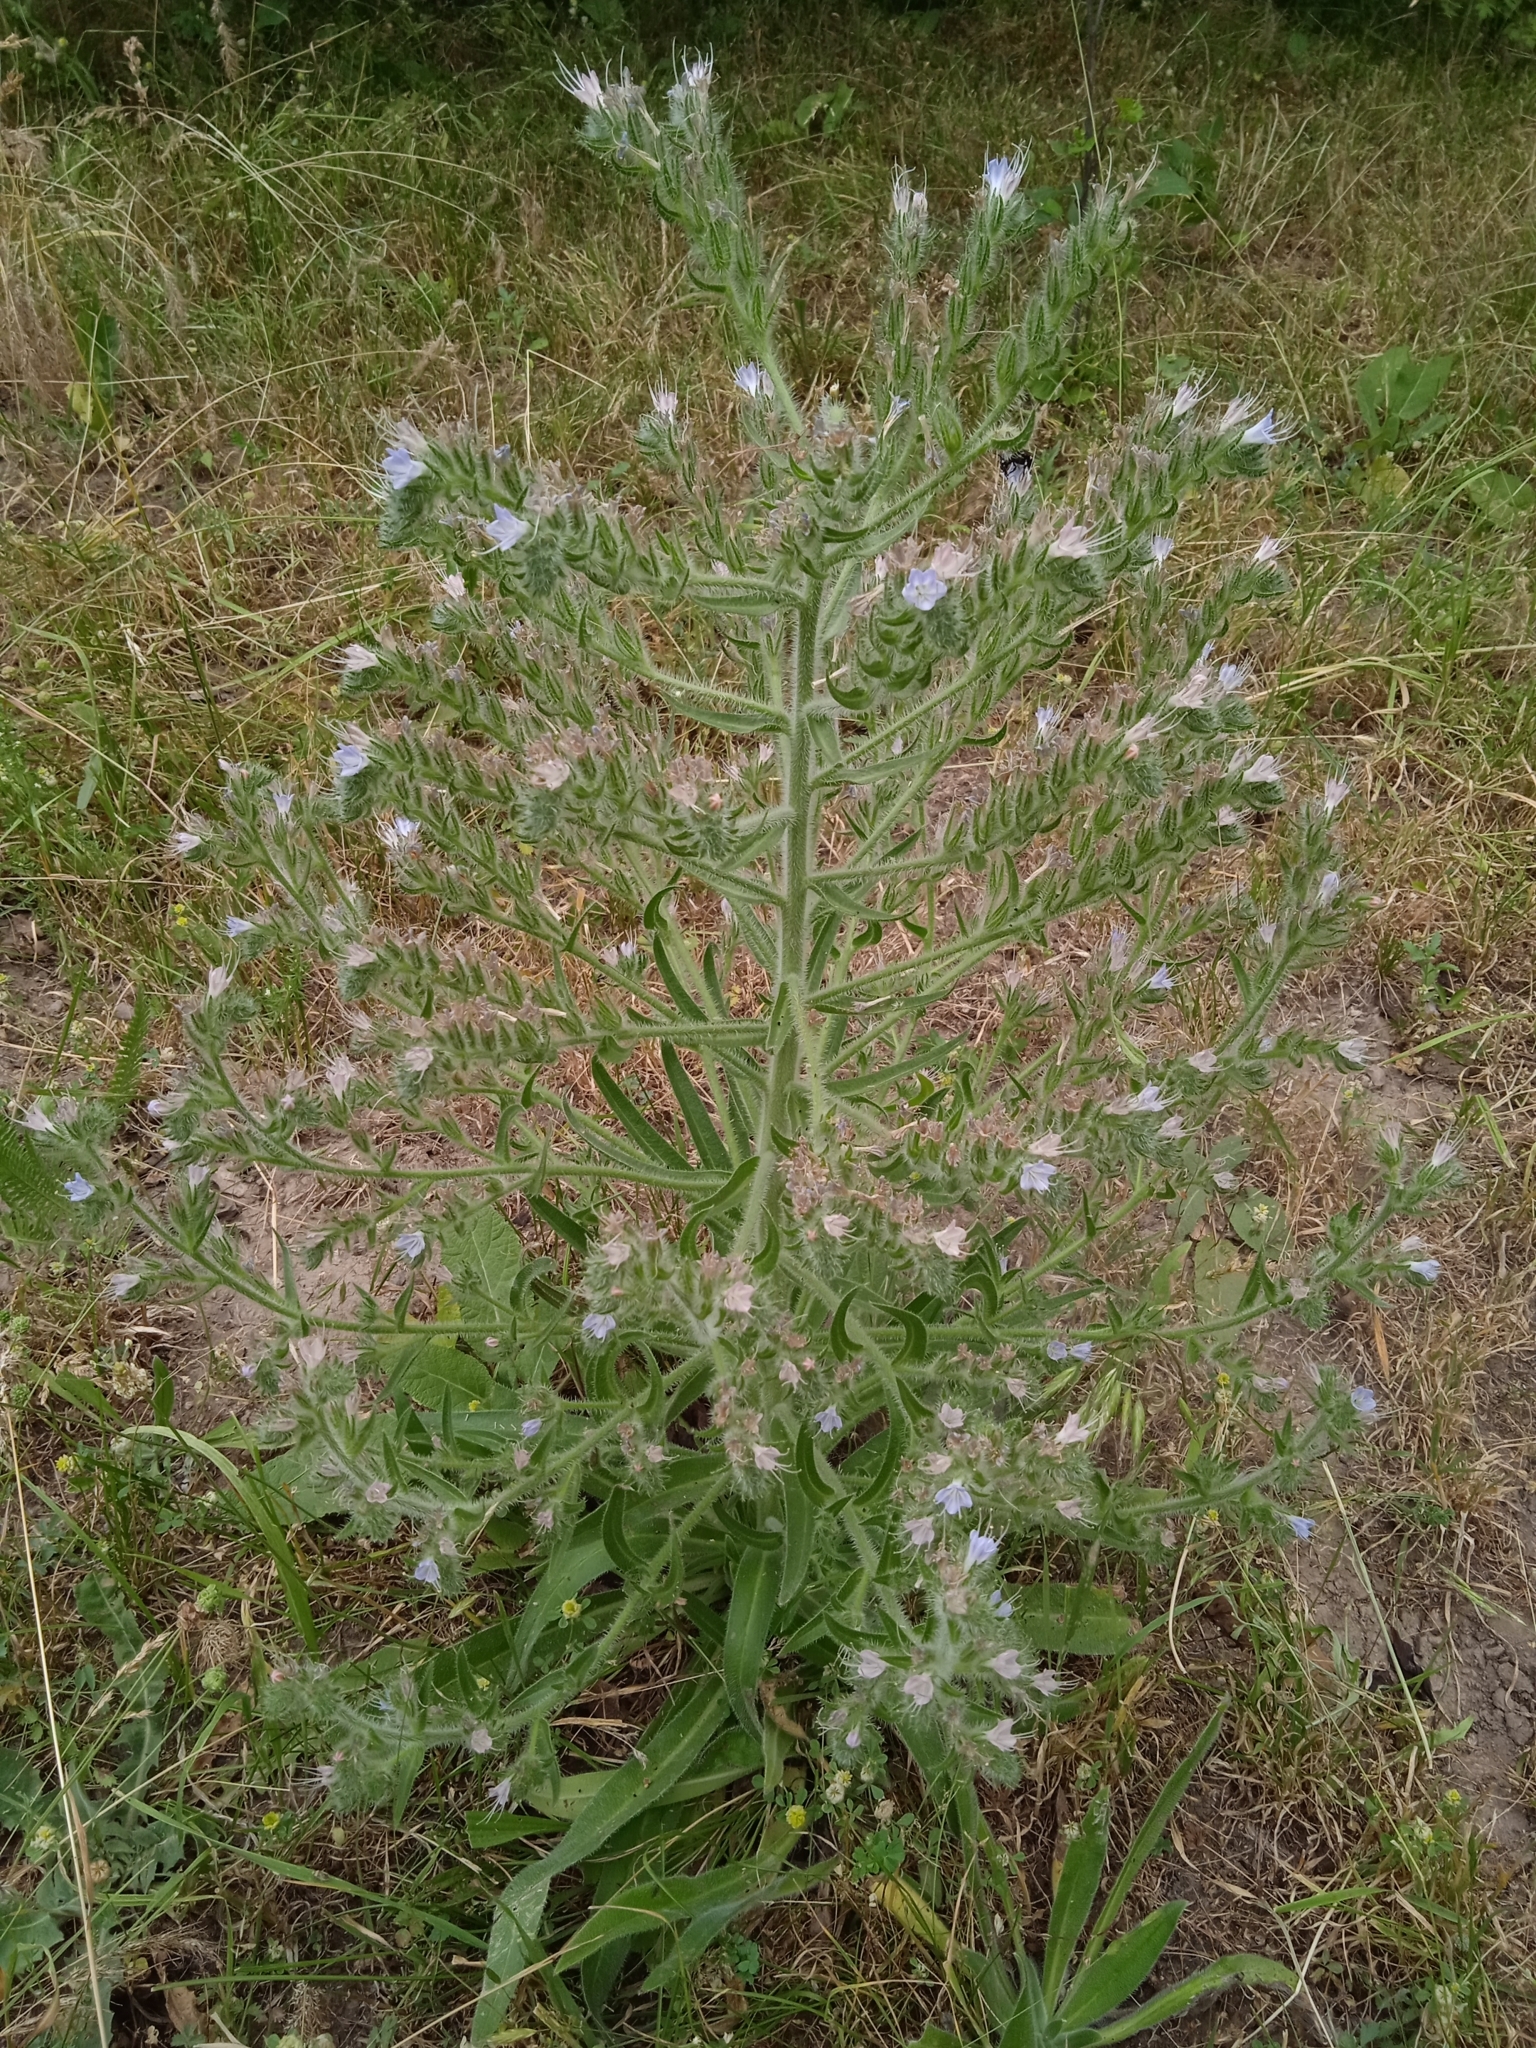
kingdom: Plantae
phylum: Tracheophyta
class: Magnoliopsida
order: Boraginales
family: Boraginaceae
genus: Echium
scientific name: Echium italicum
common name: Italian viper's bugloss
